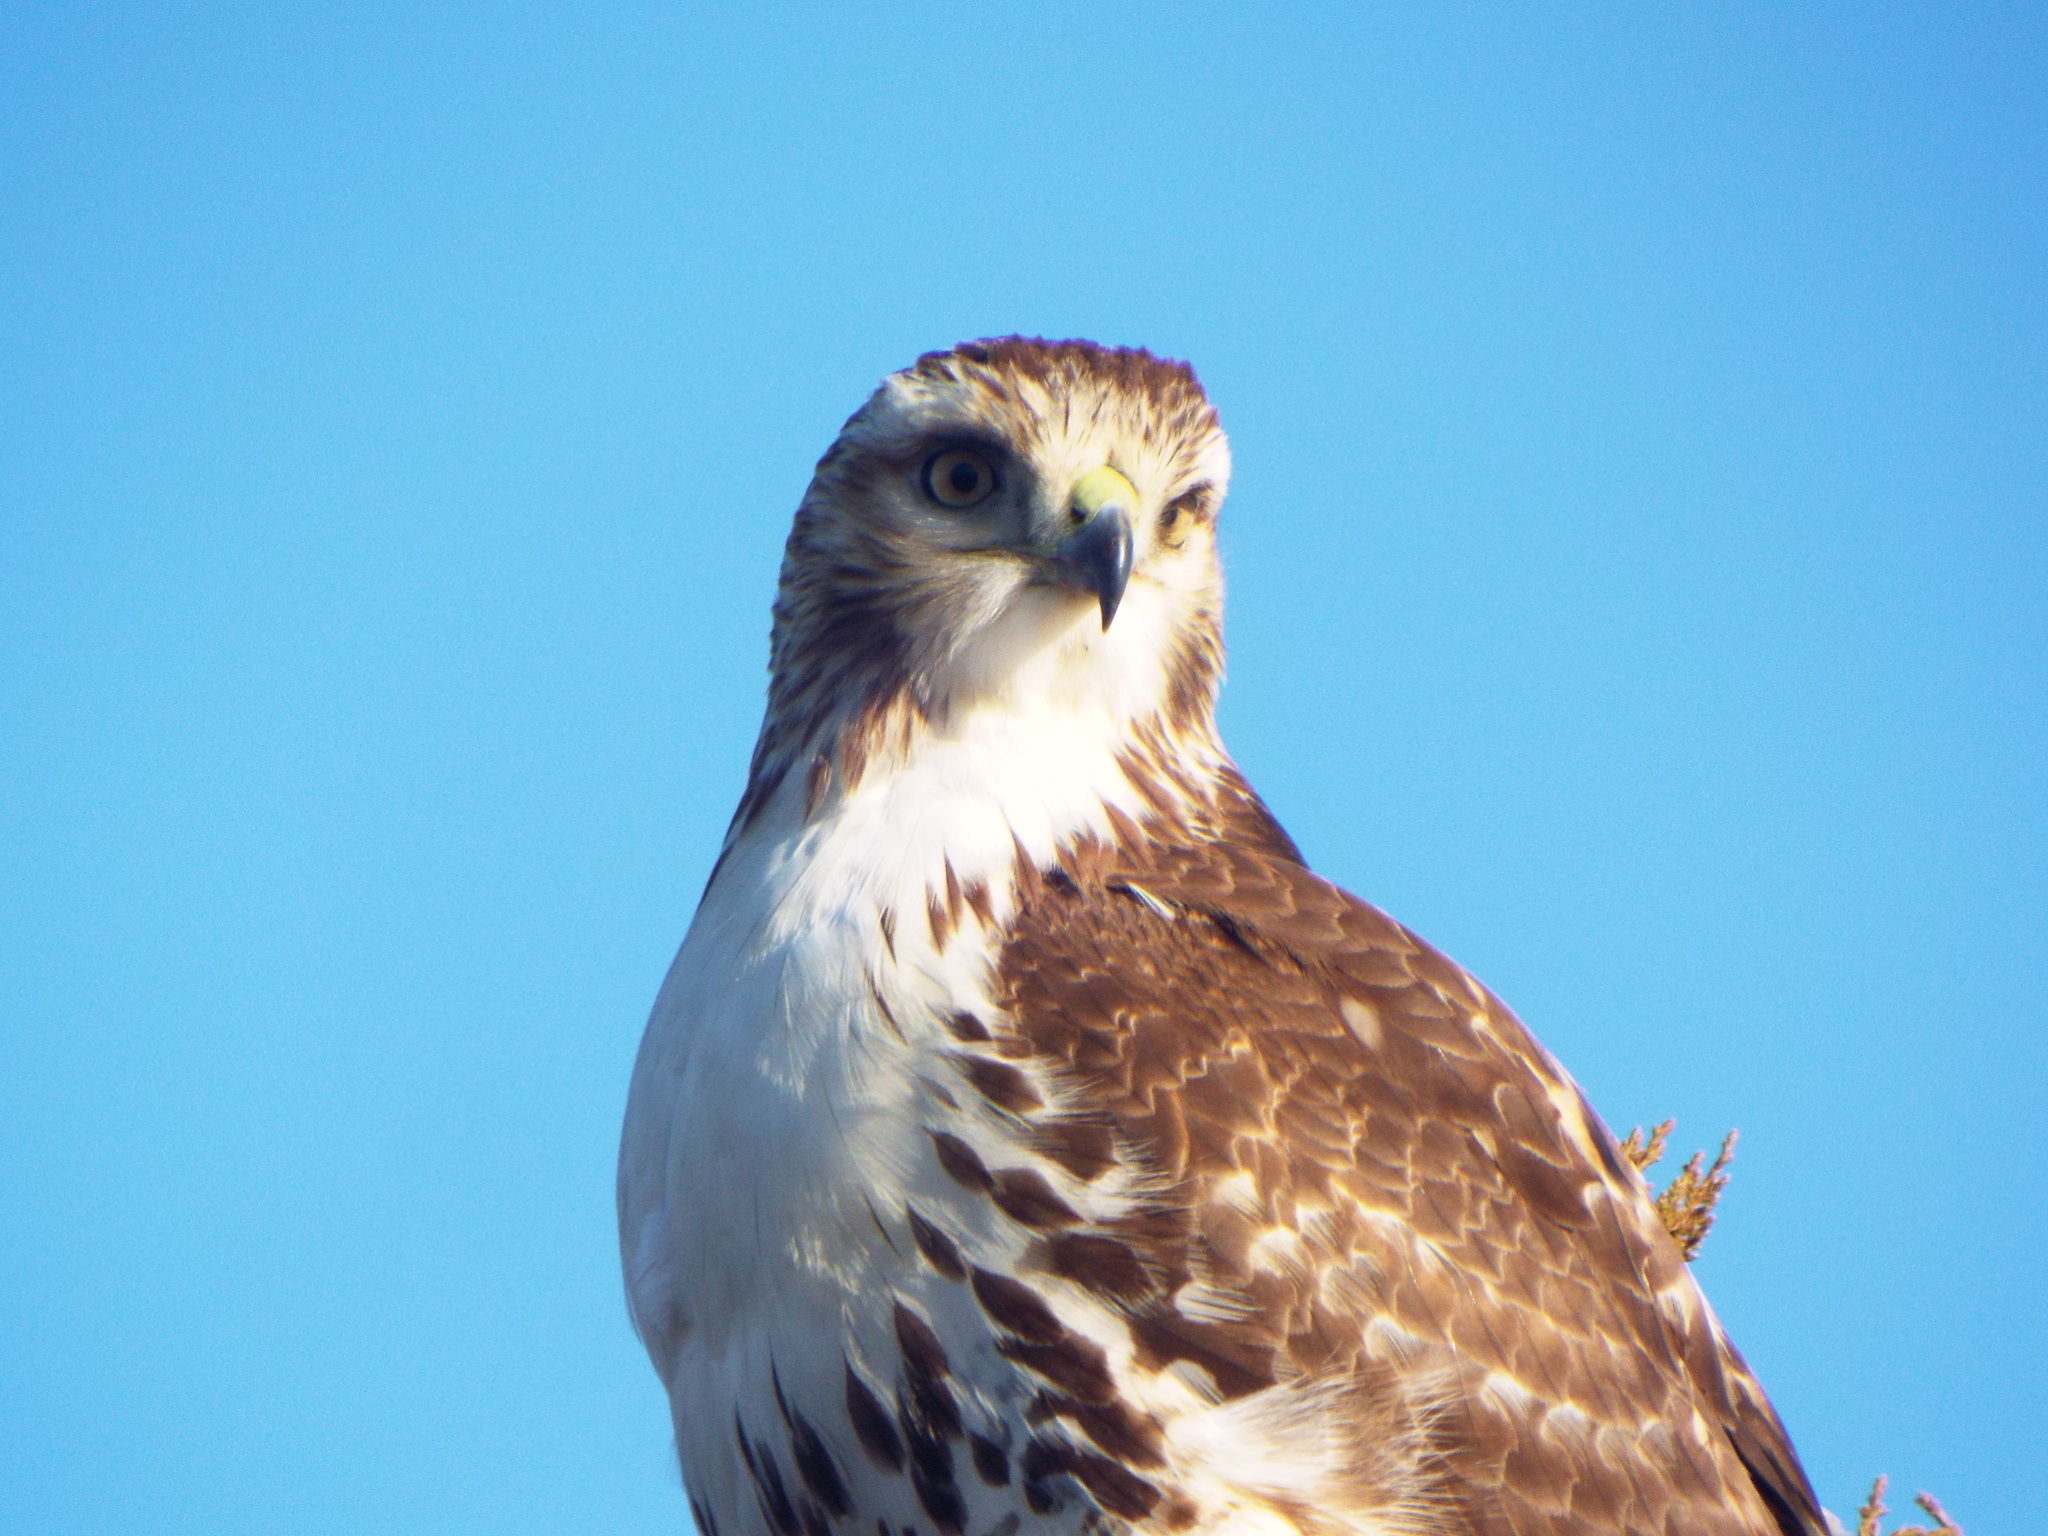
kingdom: Animalia
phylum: Chordata
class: Aves
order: Accipitriformes
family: Accipitridae
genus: Buteo
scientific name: Buteo jamaicensis
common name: Red-tailed hawk
